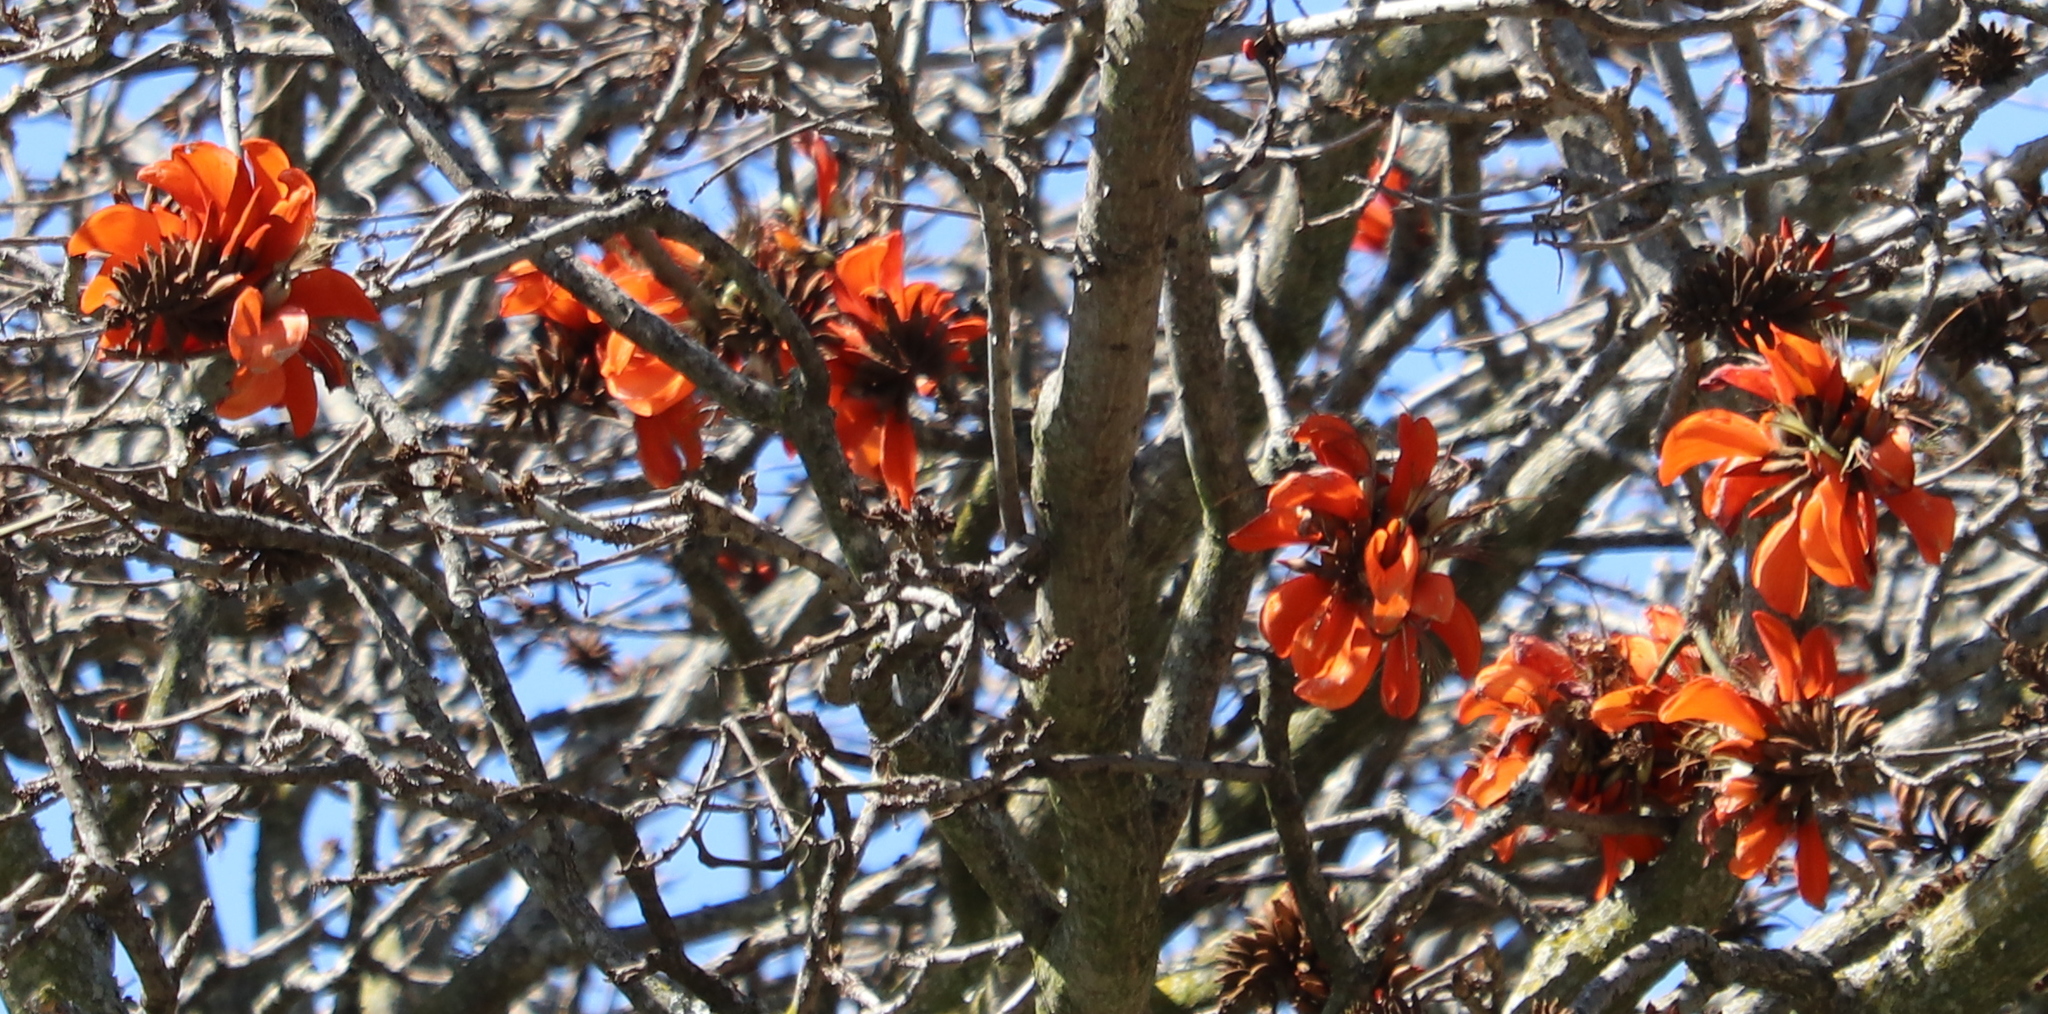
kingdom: Plantae
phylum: Tracheophyta
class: Magnoliopsida
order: Fabales
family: Fabaceae
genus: Erythrina
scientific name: Erythrina caffra
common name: Coast coral tree
